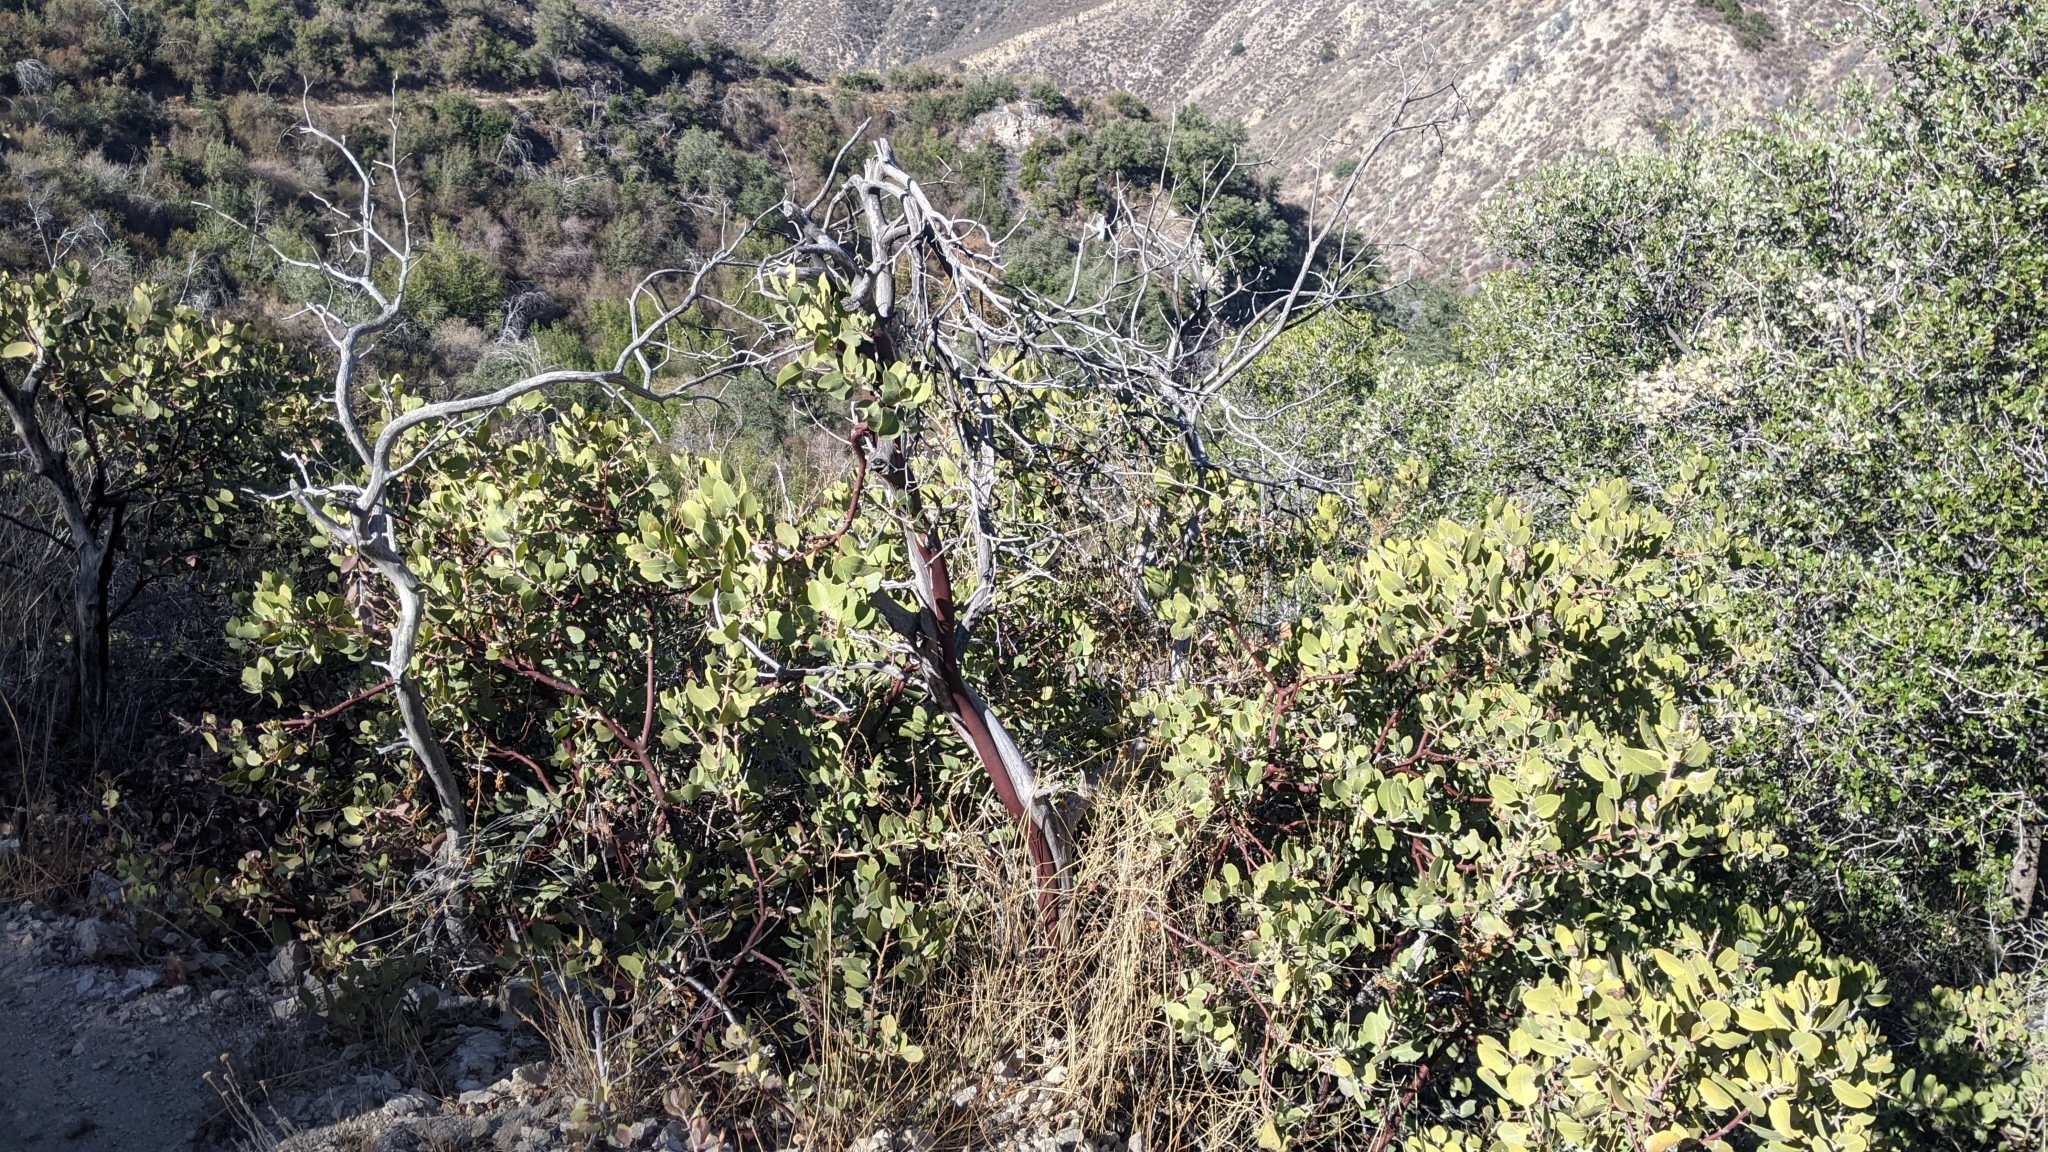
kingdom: Plantae
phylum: Tracheophyta
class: Magnoliopsida
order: Ericales
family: Ericaceae
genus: Arctostaphylos
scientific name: Arctostaphylos glandulosa
